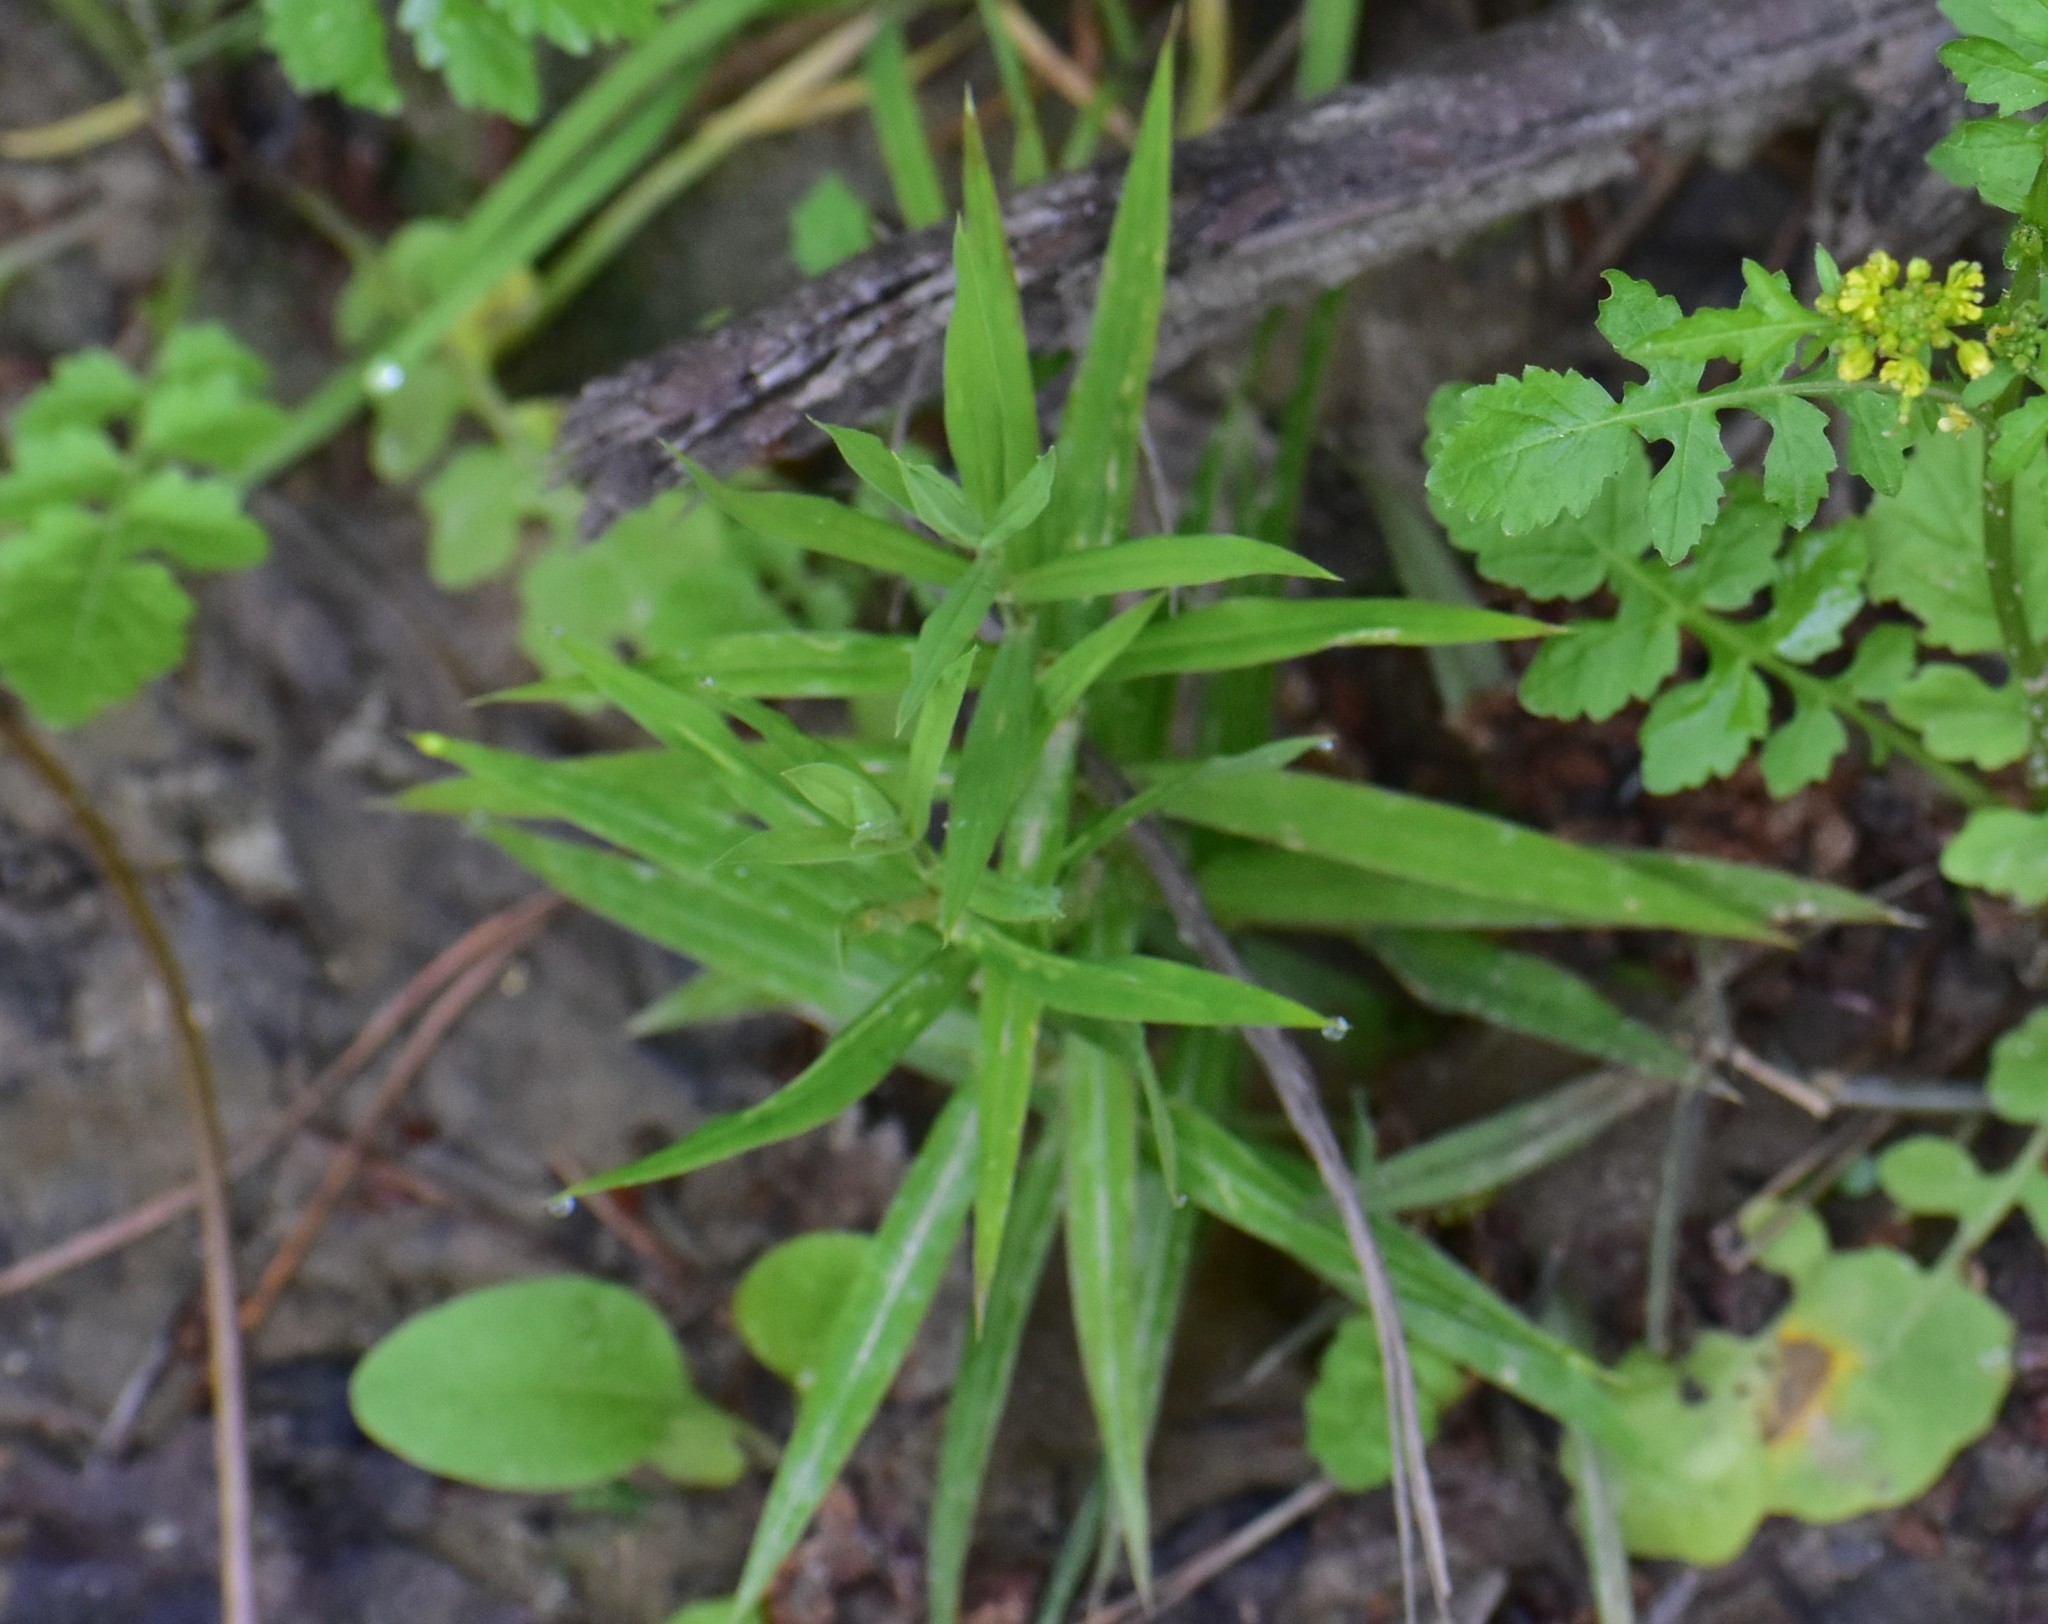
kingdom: Plantae
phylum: Tracheophyta
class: Magnoliopsida
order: Caryophyllales
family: Caryophyllaceae
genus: Rabelera
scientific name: Rabelera holostea
